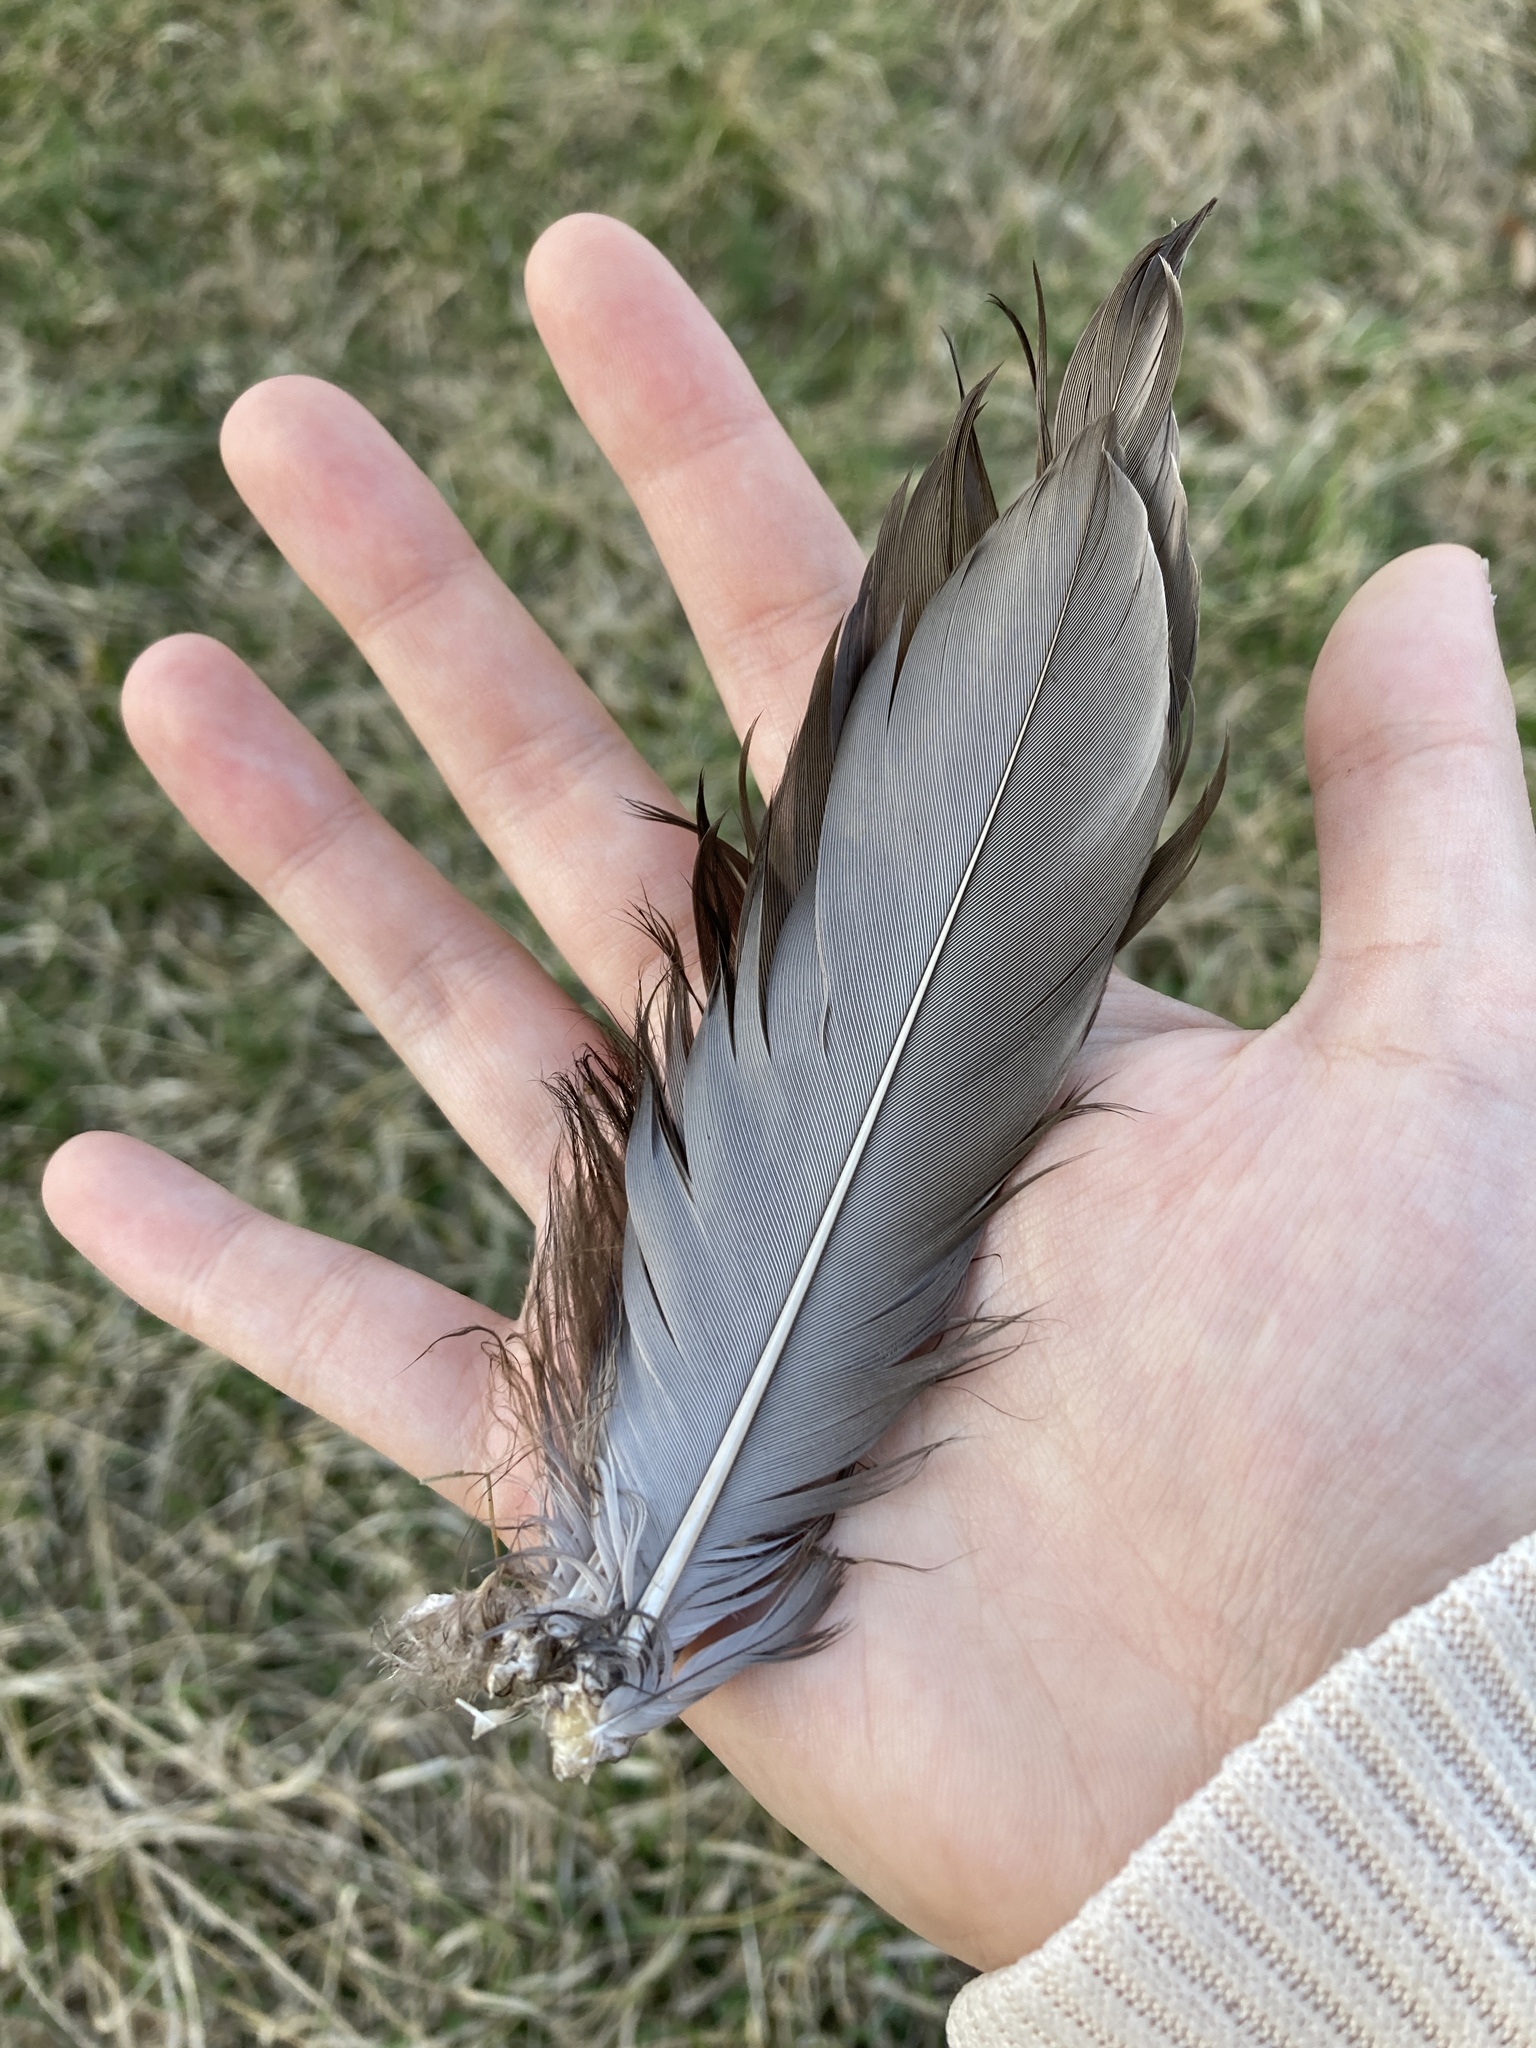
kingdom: Animalia
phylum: Chordata
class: Aves
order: Anseriformes
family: Anatidae
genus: Anas
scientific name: Anas platyrhynchos
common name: Mallard
